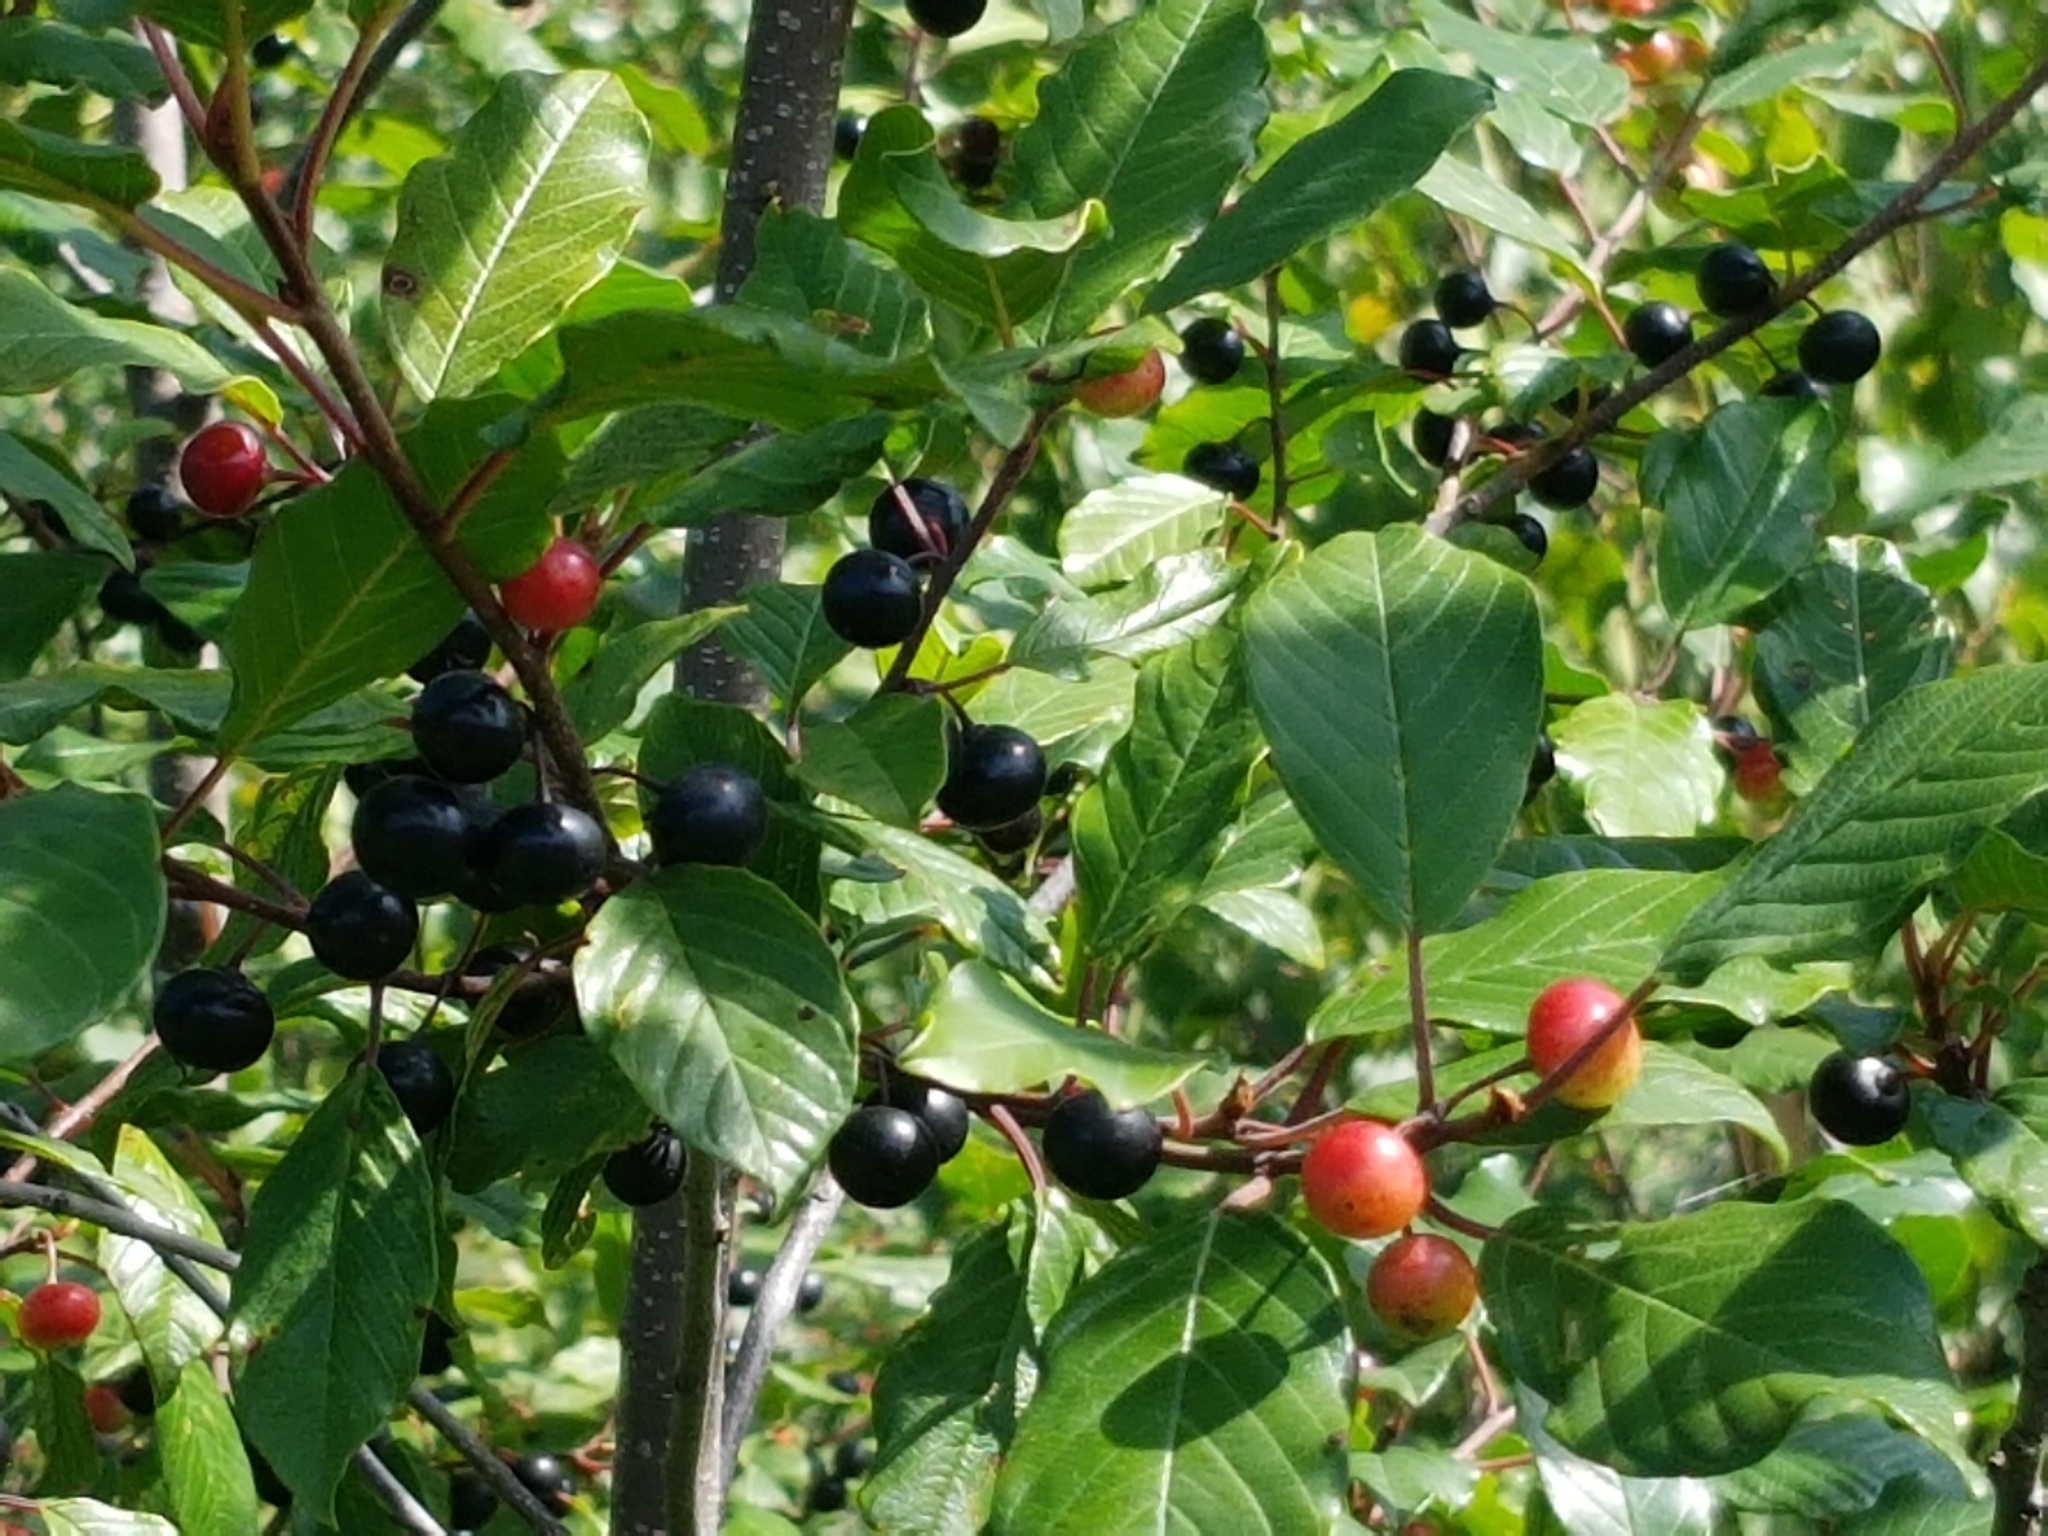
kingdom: Plantae
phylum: Tracheophyta
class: Magnoliopsida
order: Rosales
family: Rhamnaceae
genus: Frangula
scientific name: Frangula alnus
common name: Alder buckthorn
